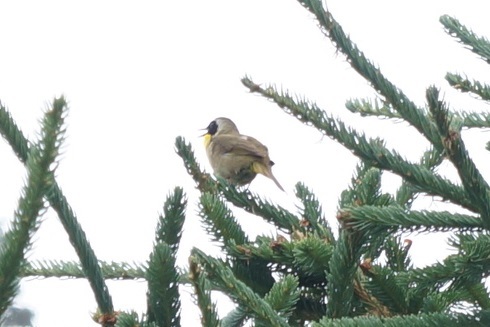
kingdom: Animalia
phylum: Chordata
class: Aves
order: Passeriformes
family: Parulidae
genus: Geothlypis
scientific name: Geothlypis trichas
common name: Common yellowthroat
